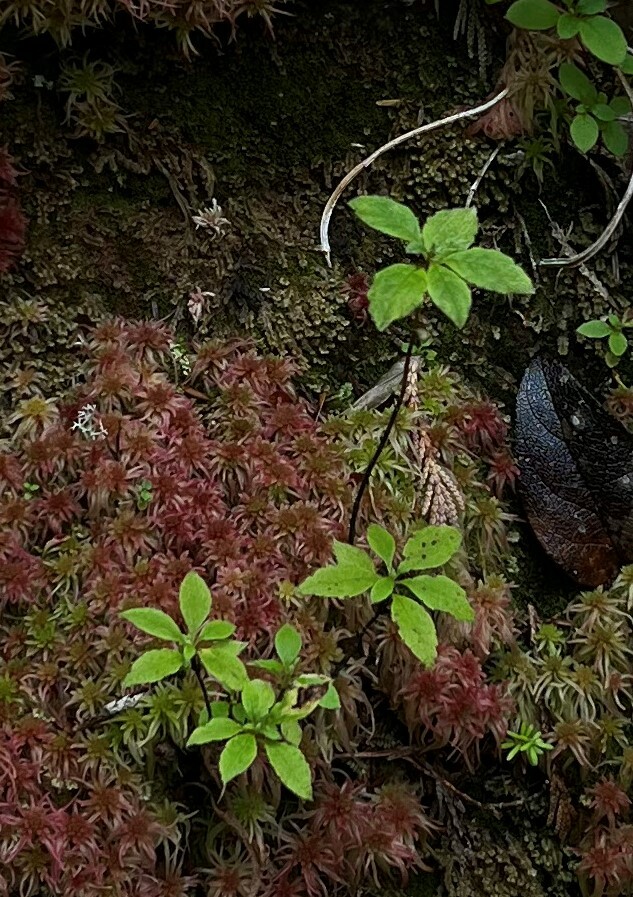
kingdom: Plantae
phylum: Tracheophyta
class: Magnoliopsida
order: Ericales
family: Ericaceae
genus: Rhododendron
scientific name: Rhododendron menziesii
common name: Pacific menziesia
